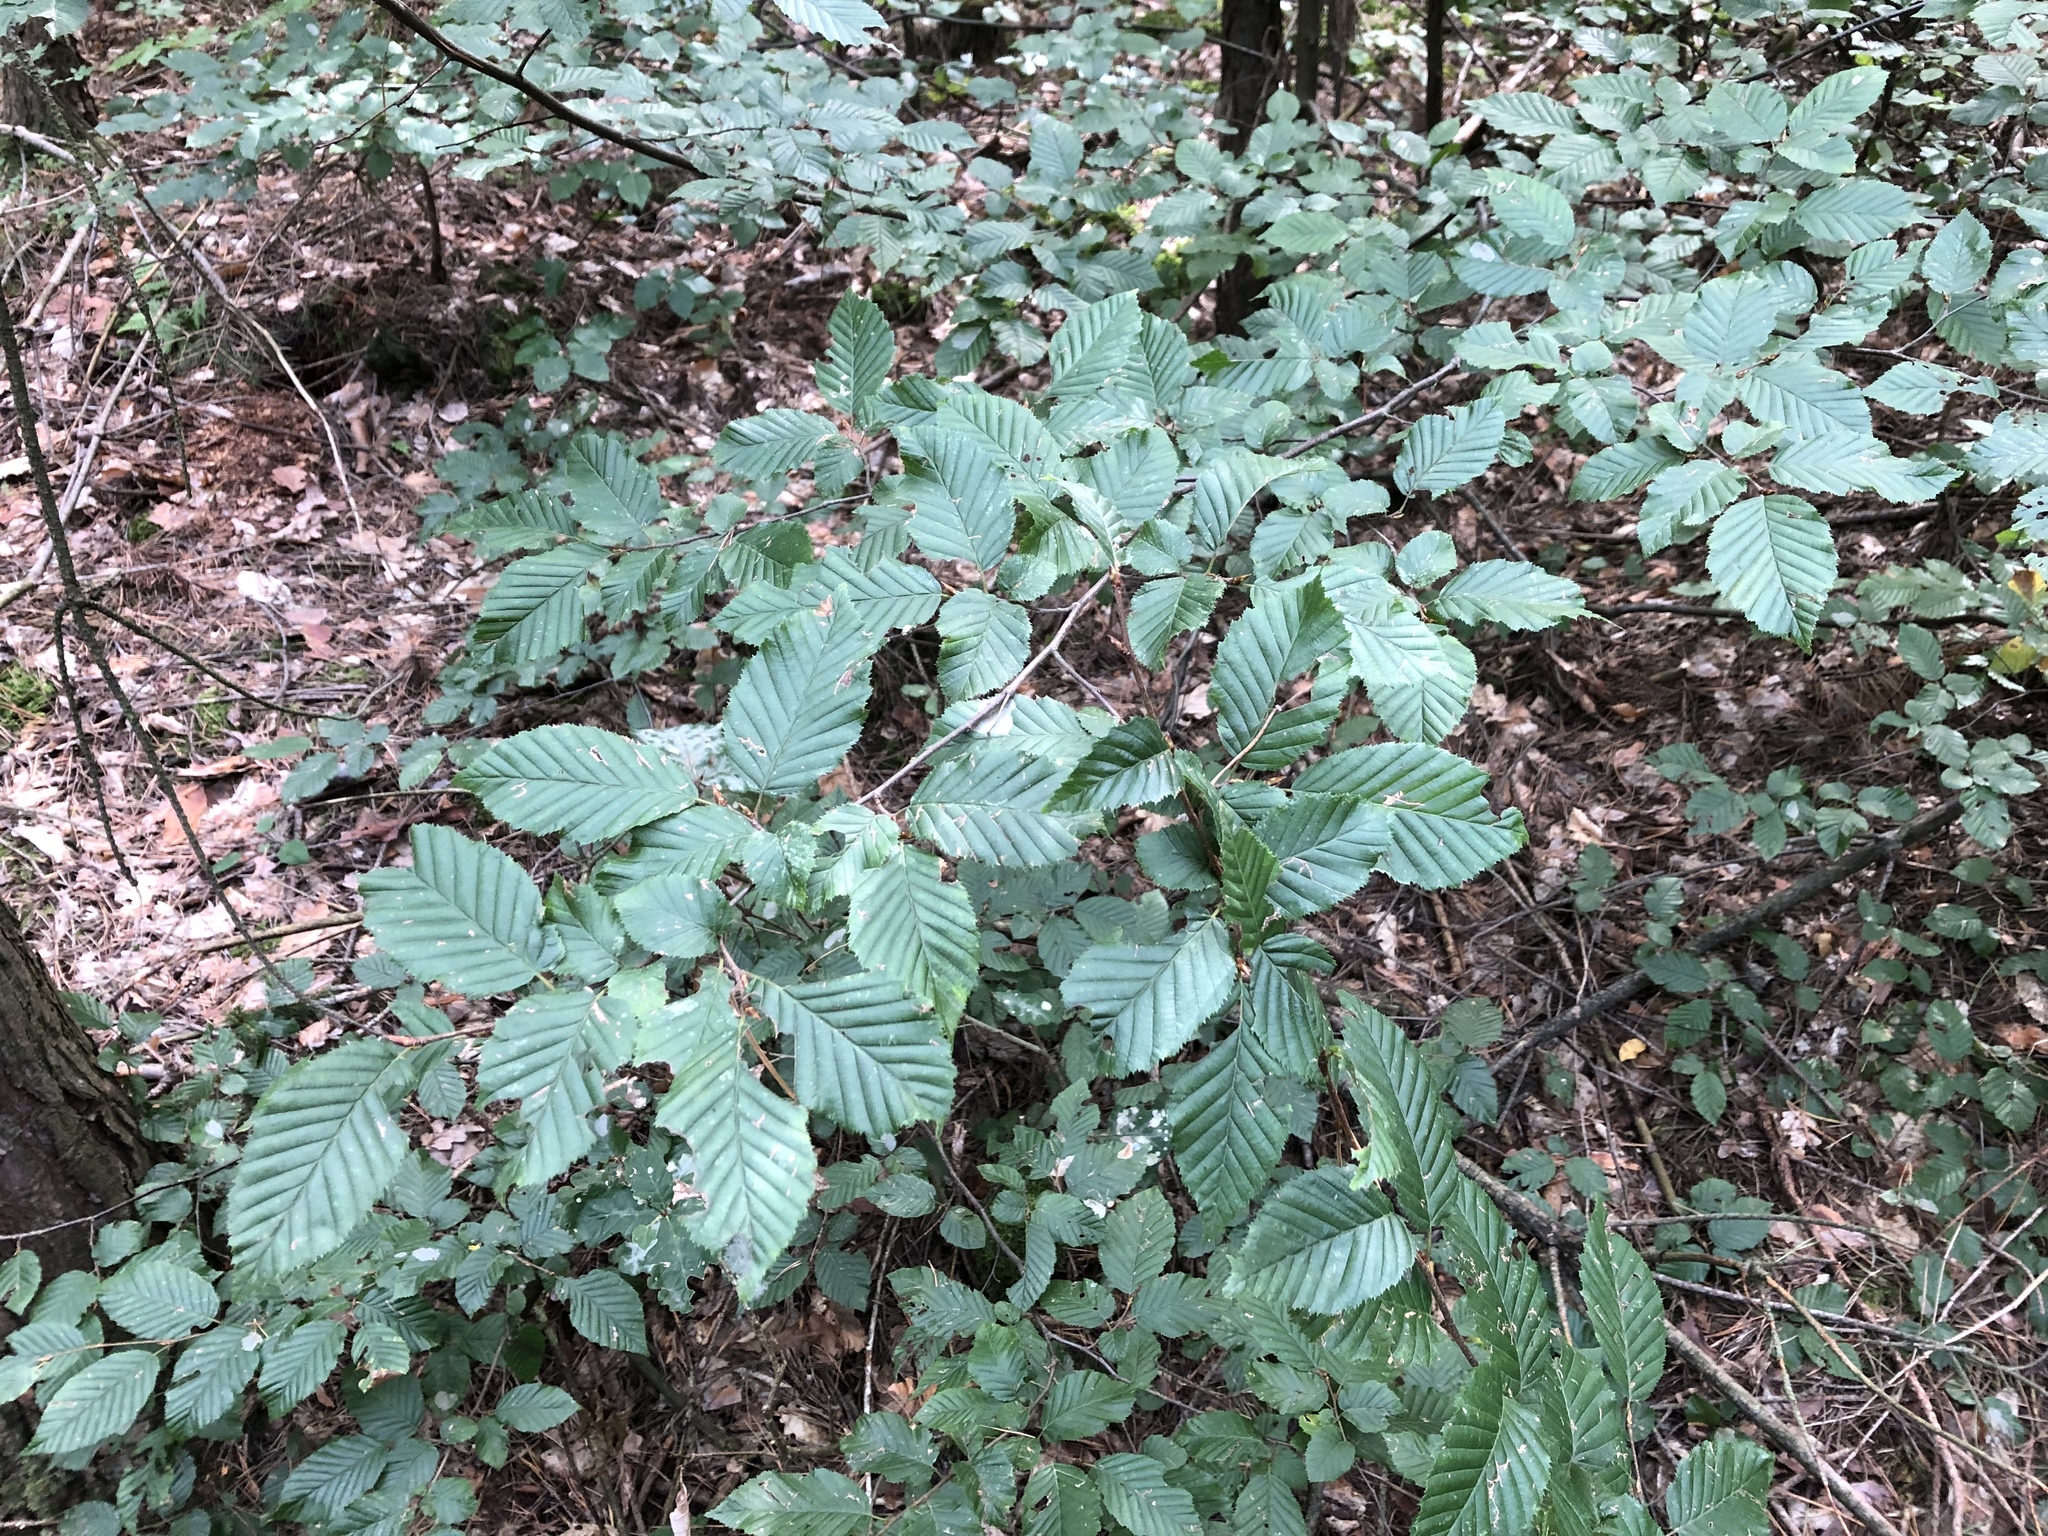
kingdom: Plantae
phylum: Tracheophyta
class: Magnoliopsida
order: Fagales
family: Betulaceae
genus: Carpinus
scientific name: Carpinus betulus
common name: Hornbeam
